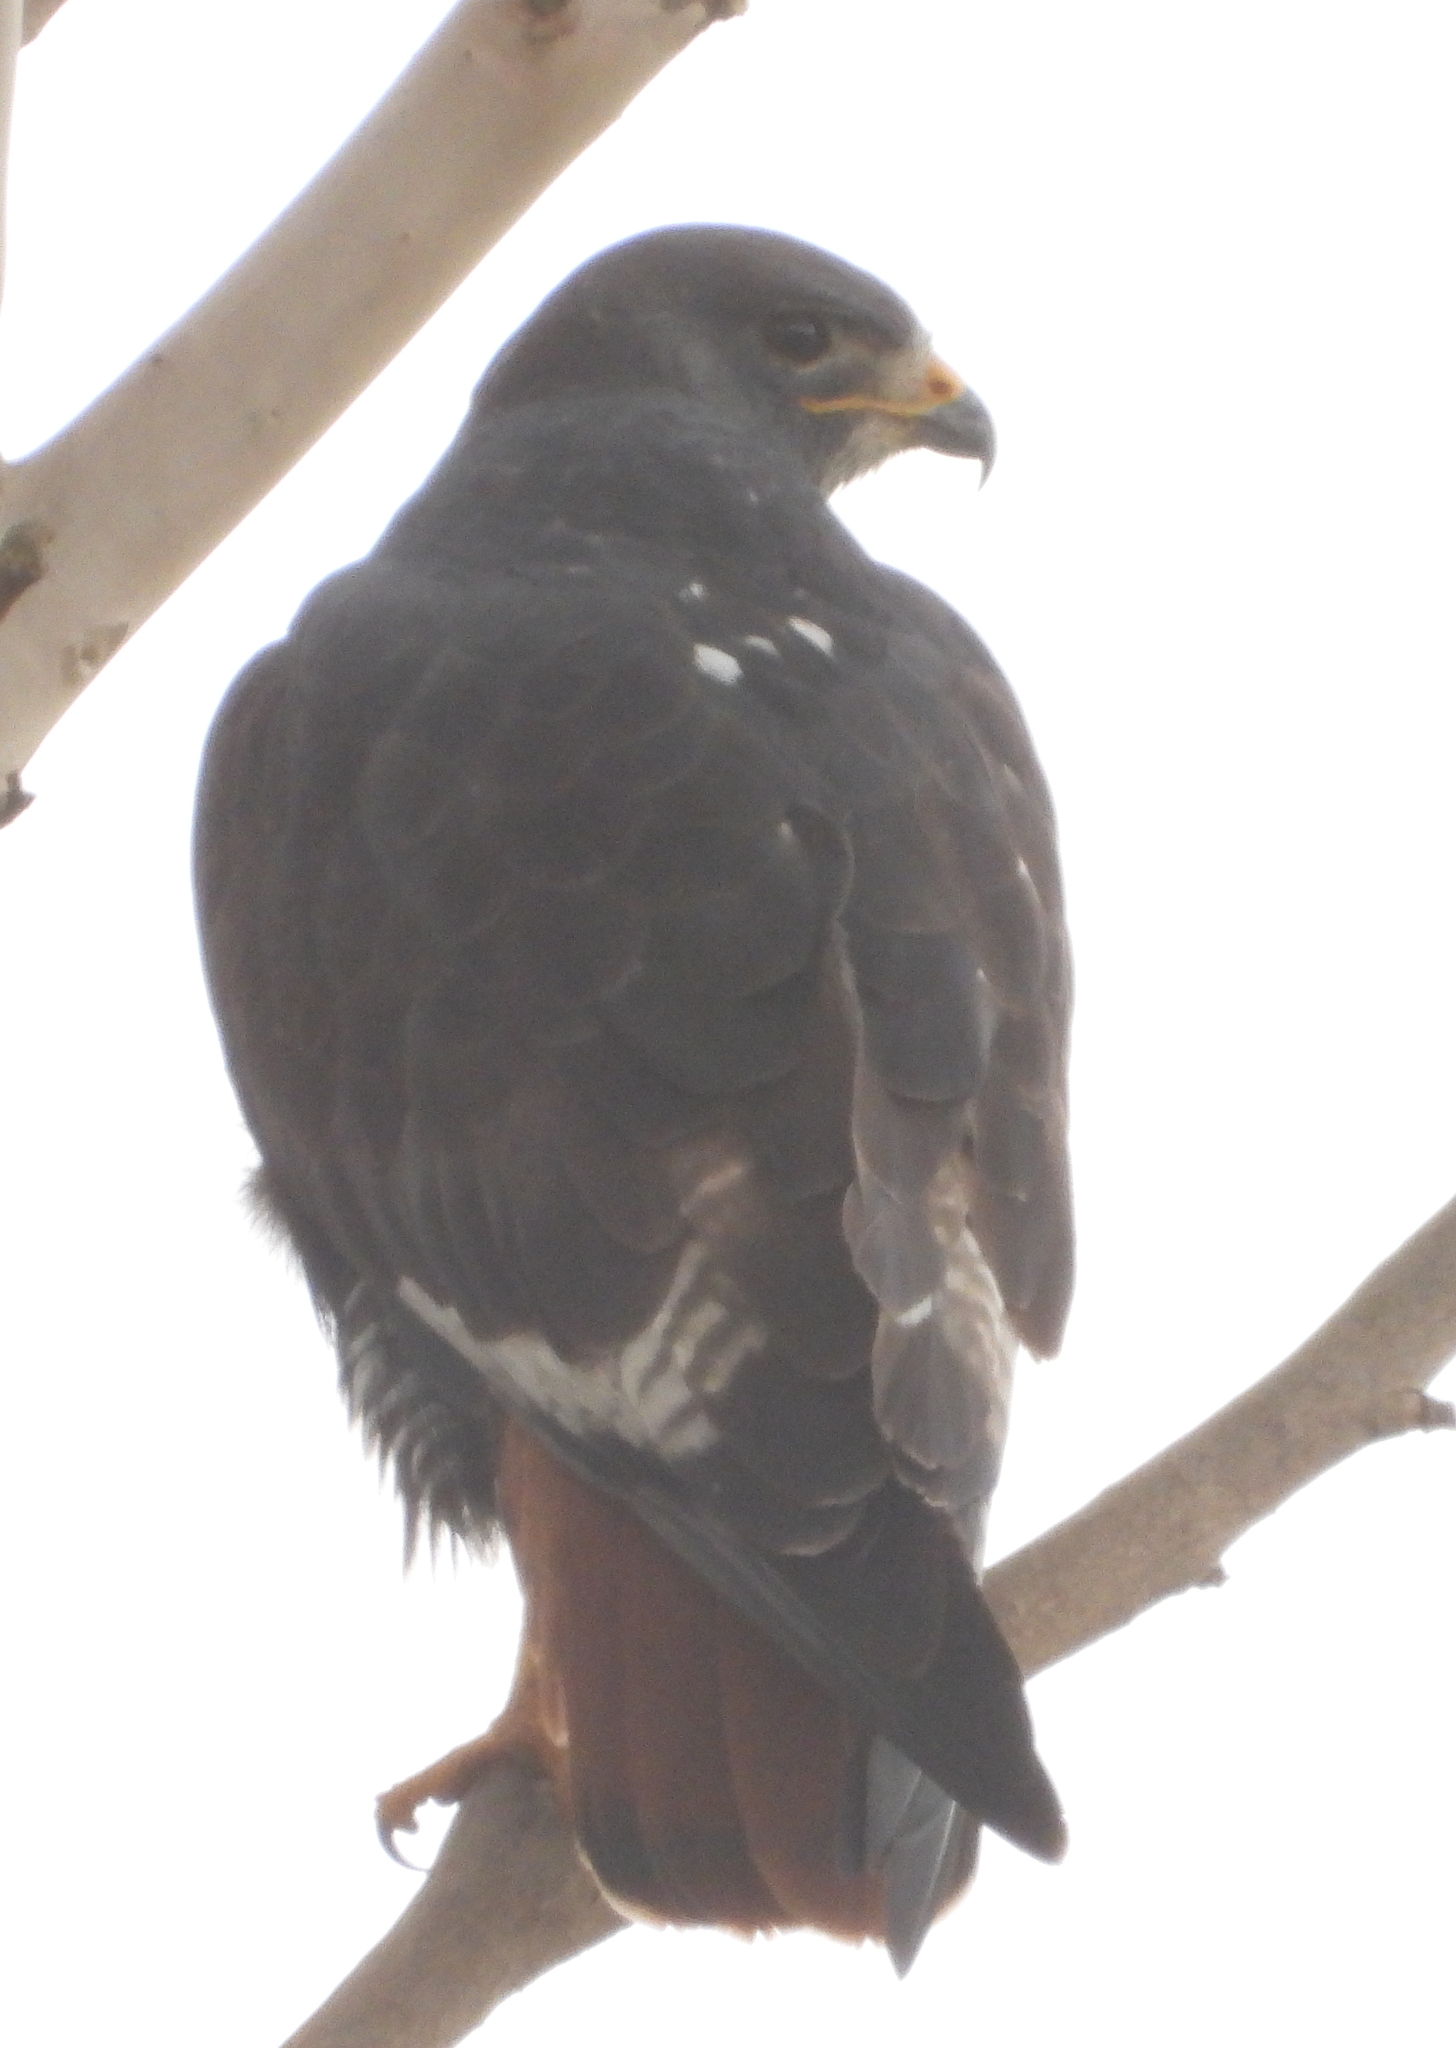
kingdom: Animalia
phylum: Chordata
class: Aves
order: Accipitriformes
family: Accipitridae
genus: Buteo
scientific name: Buteo rufofuscus
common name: Jackal buzzard
